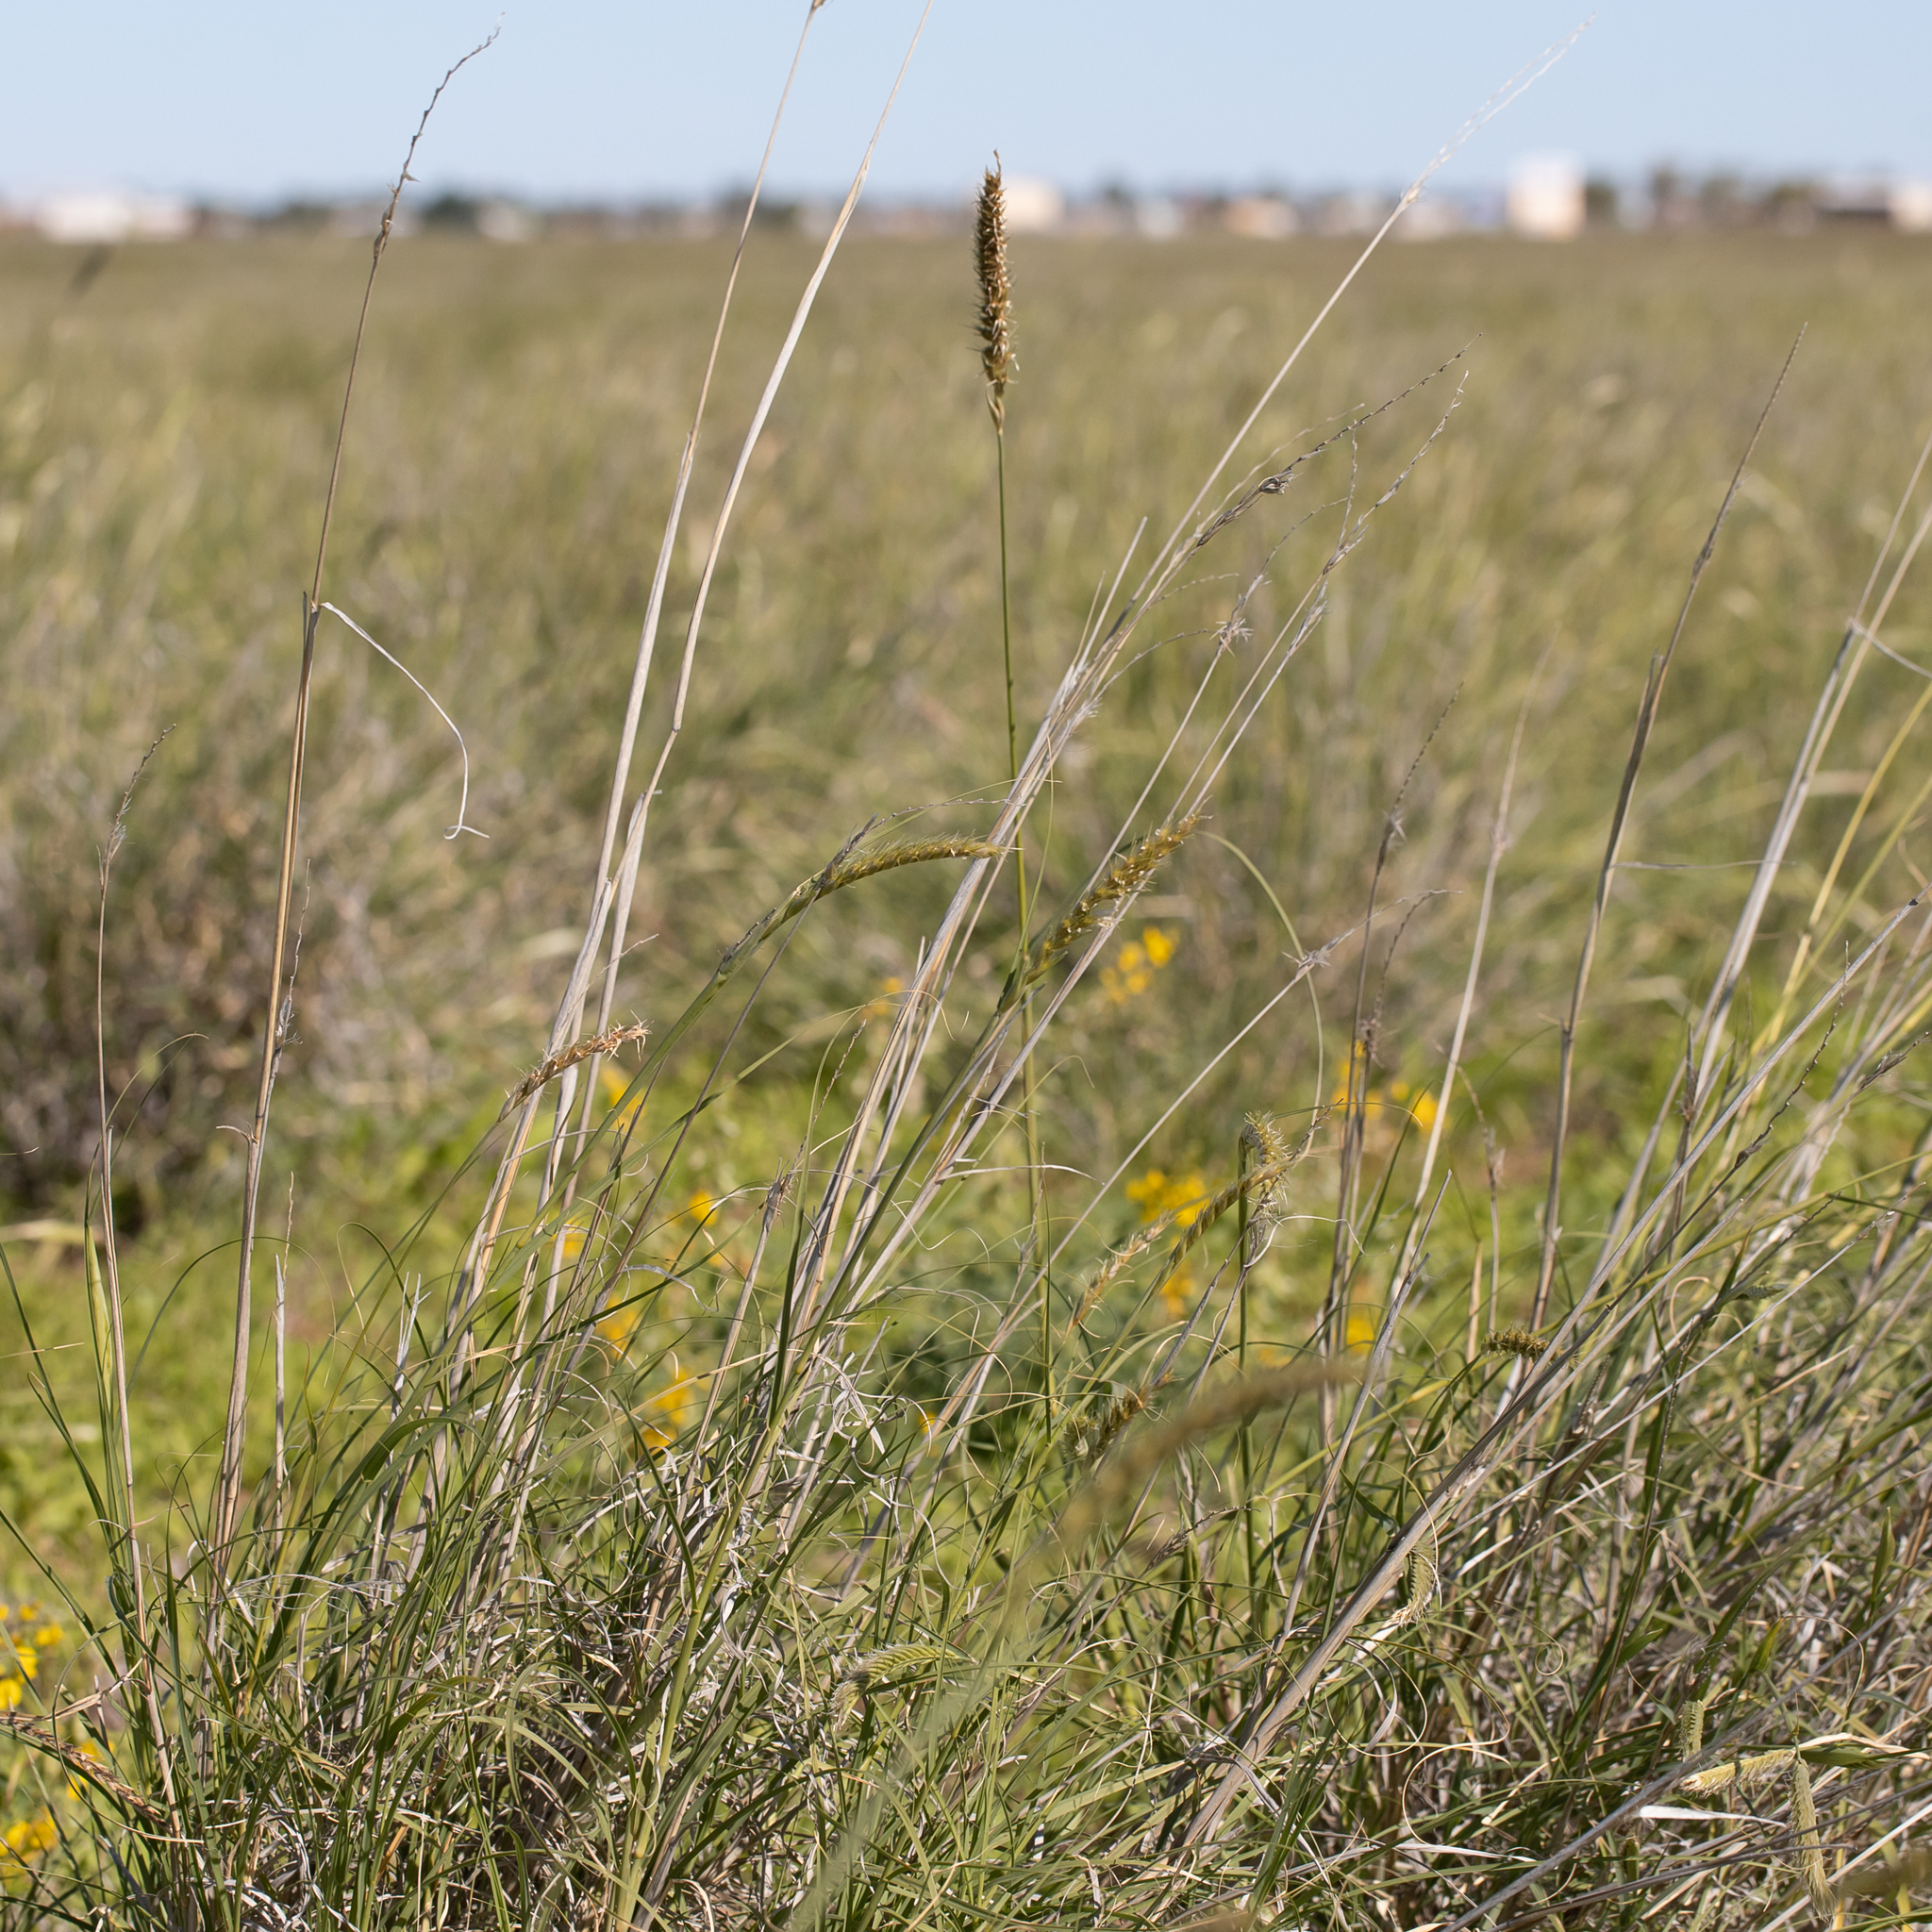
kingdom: Plantae
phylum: Tracheophyta
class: Liliopsida
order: Poales
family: Poaceae
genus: Astrebla
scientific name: Astrebla squarrosa
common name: Wheat-ear mitchell grass
